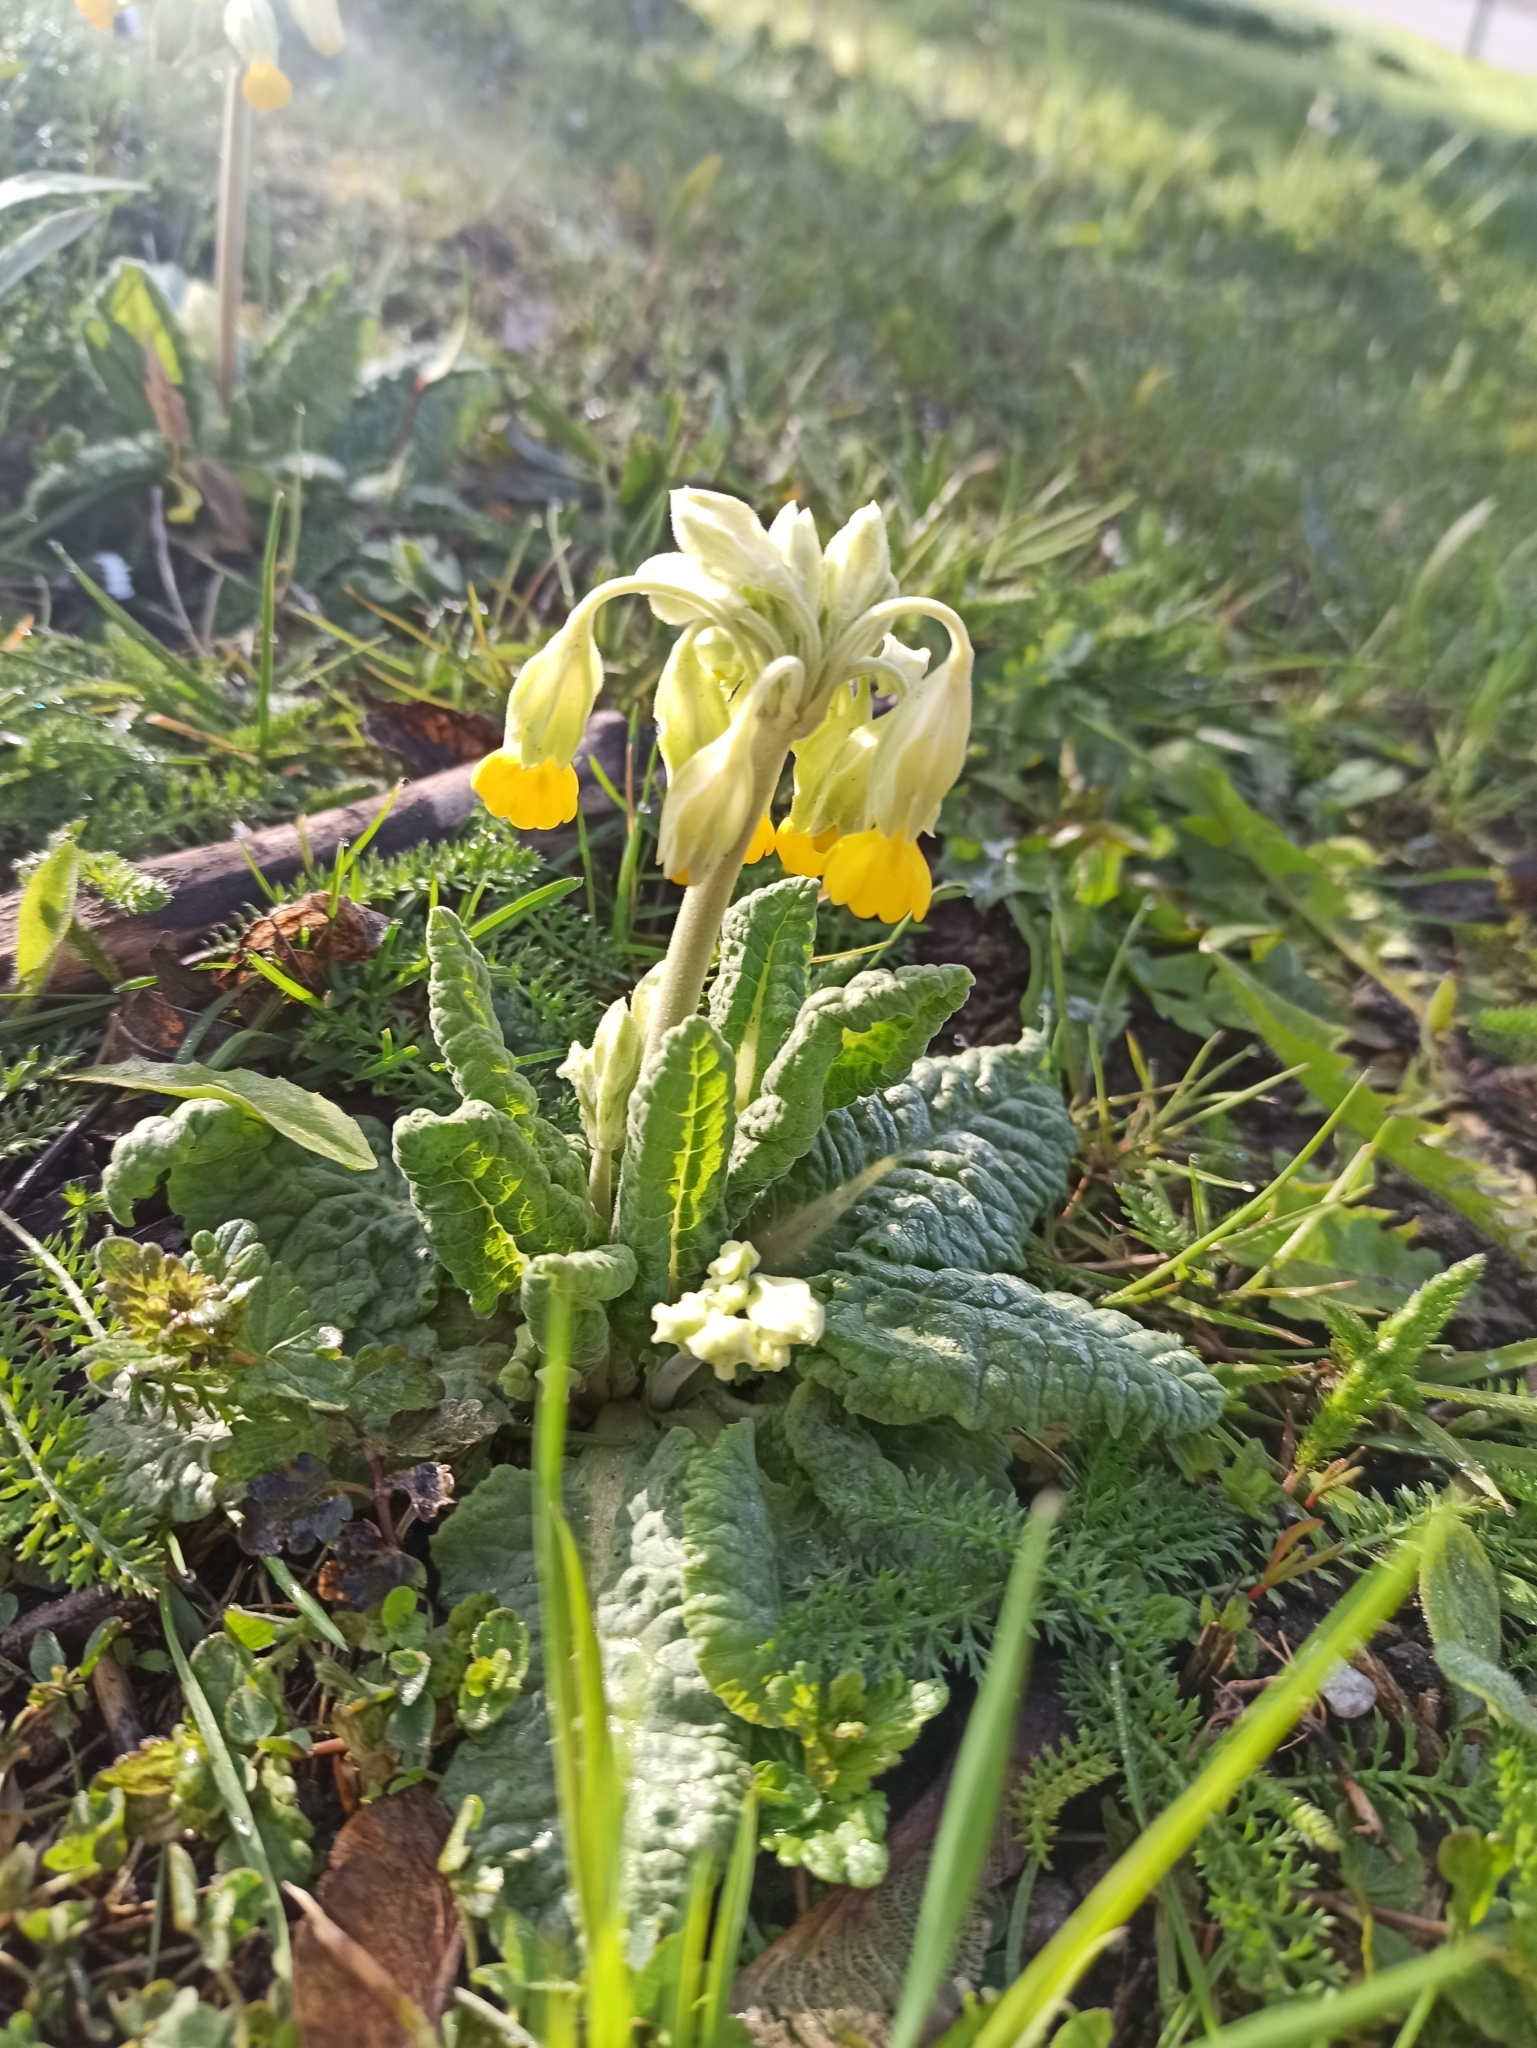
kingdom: Plantae
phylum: Tracheophyta
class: Magnoliopsida
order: Ericales
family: Primulaceae
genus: Primula
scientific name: Primula veris
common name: Cowslip
